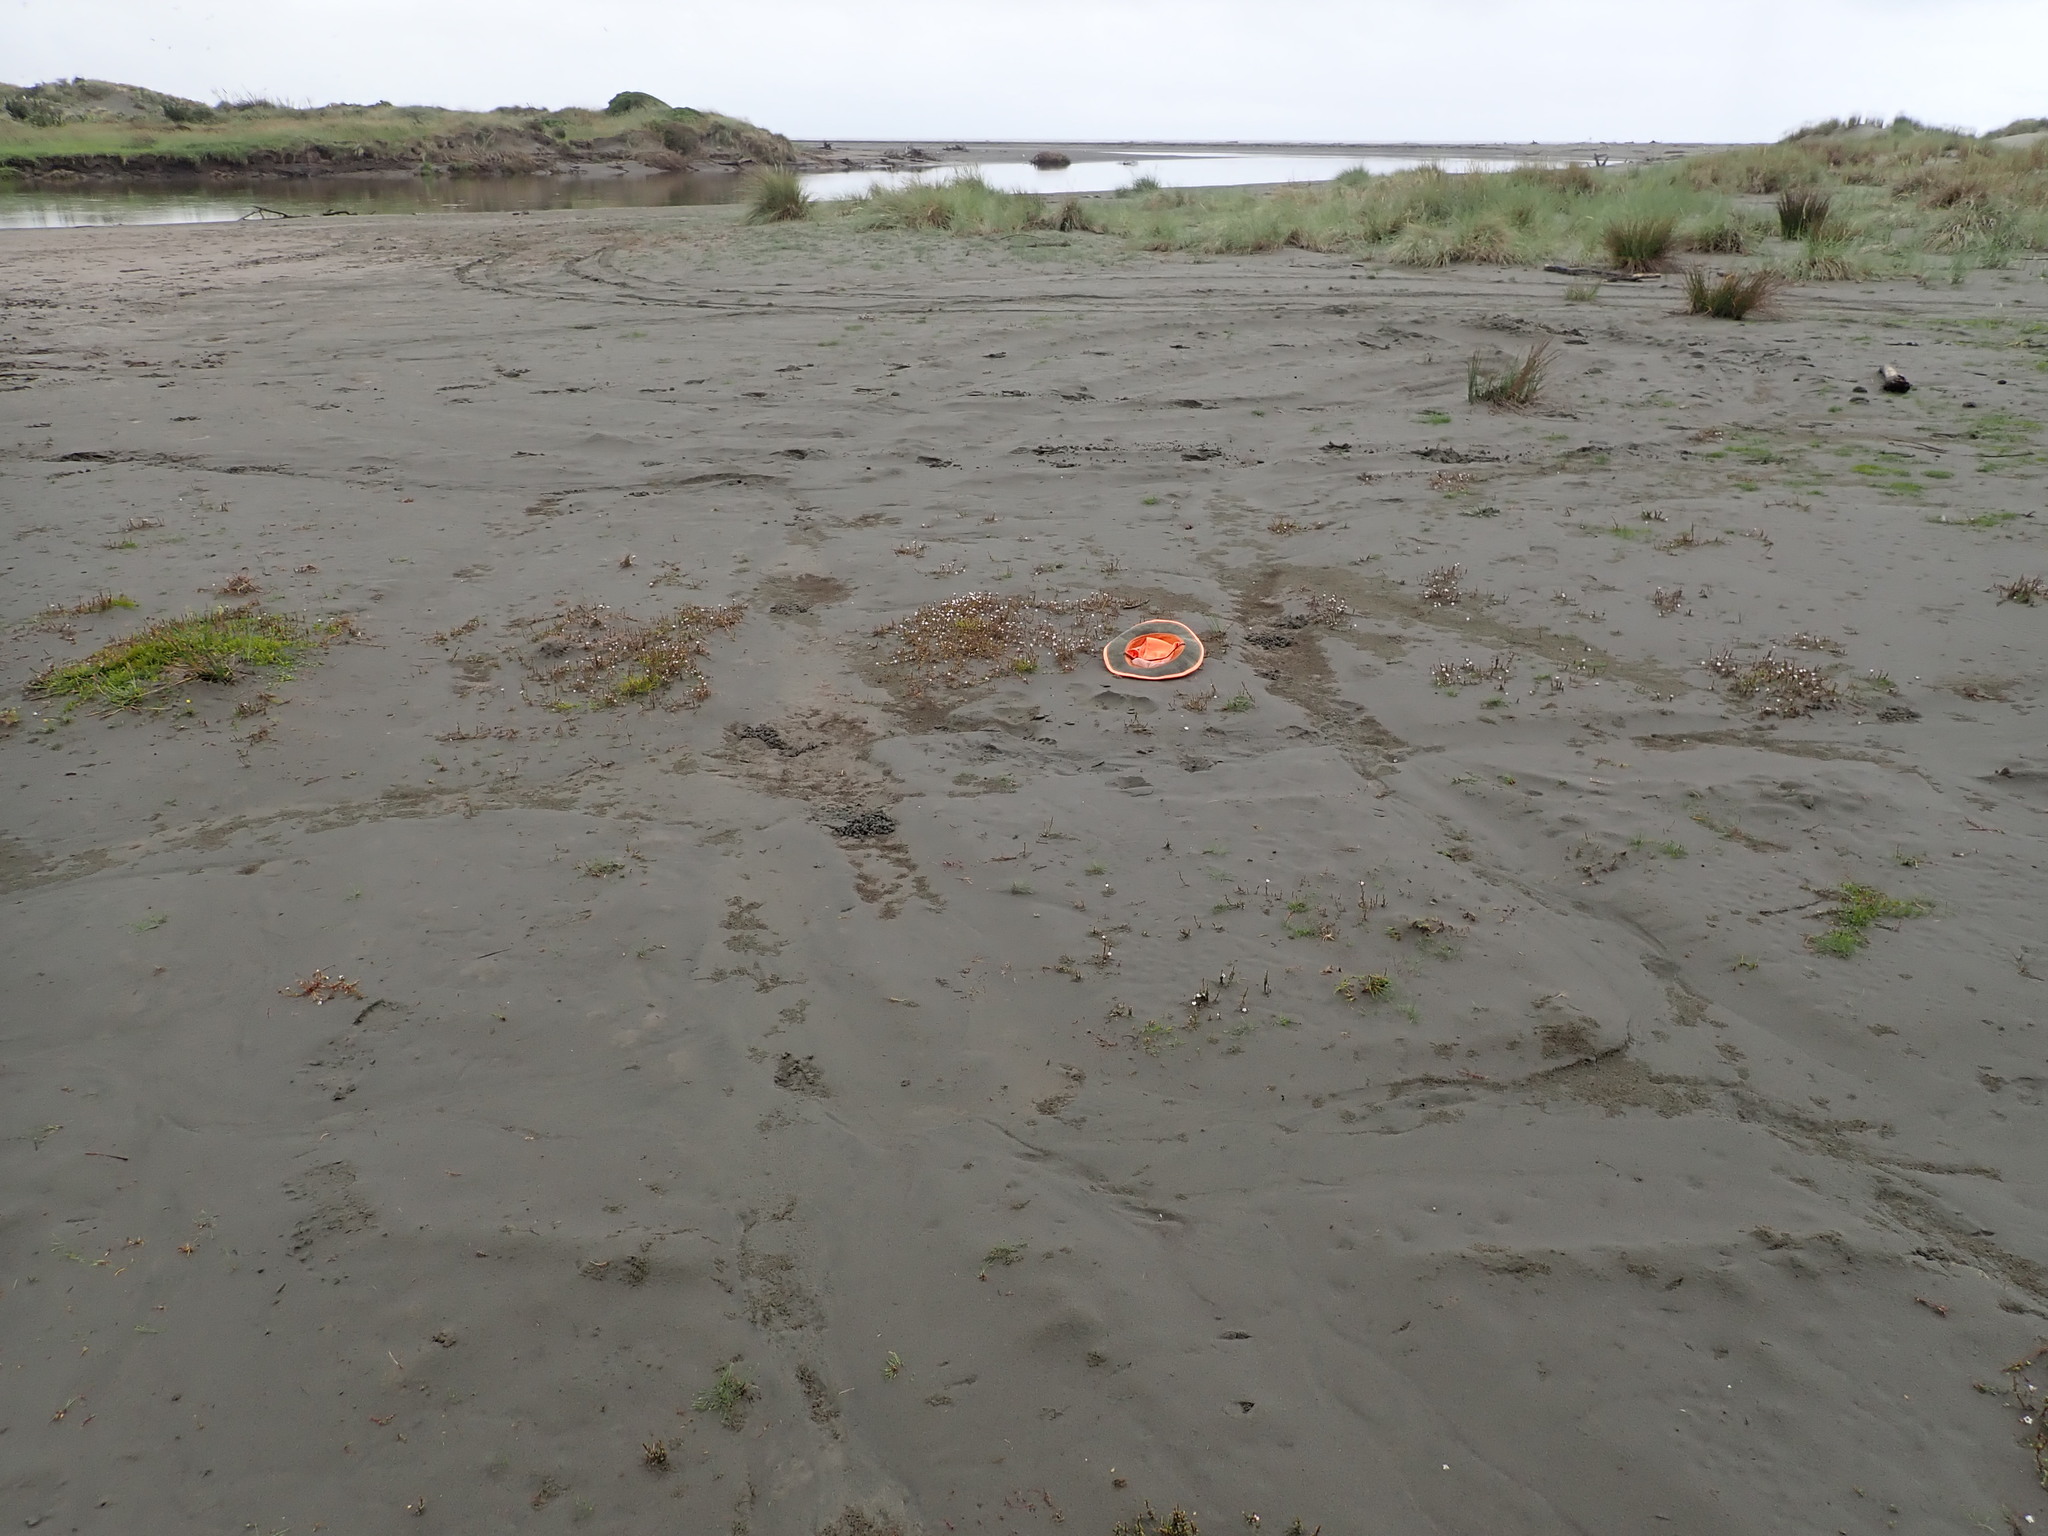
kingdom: Plantae
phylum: Tracheophyta
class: Magnoliopsida
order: Ericales
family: Primulaceae
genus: Samolus
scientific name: Samolus repens
